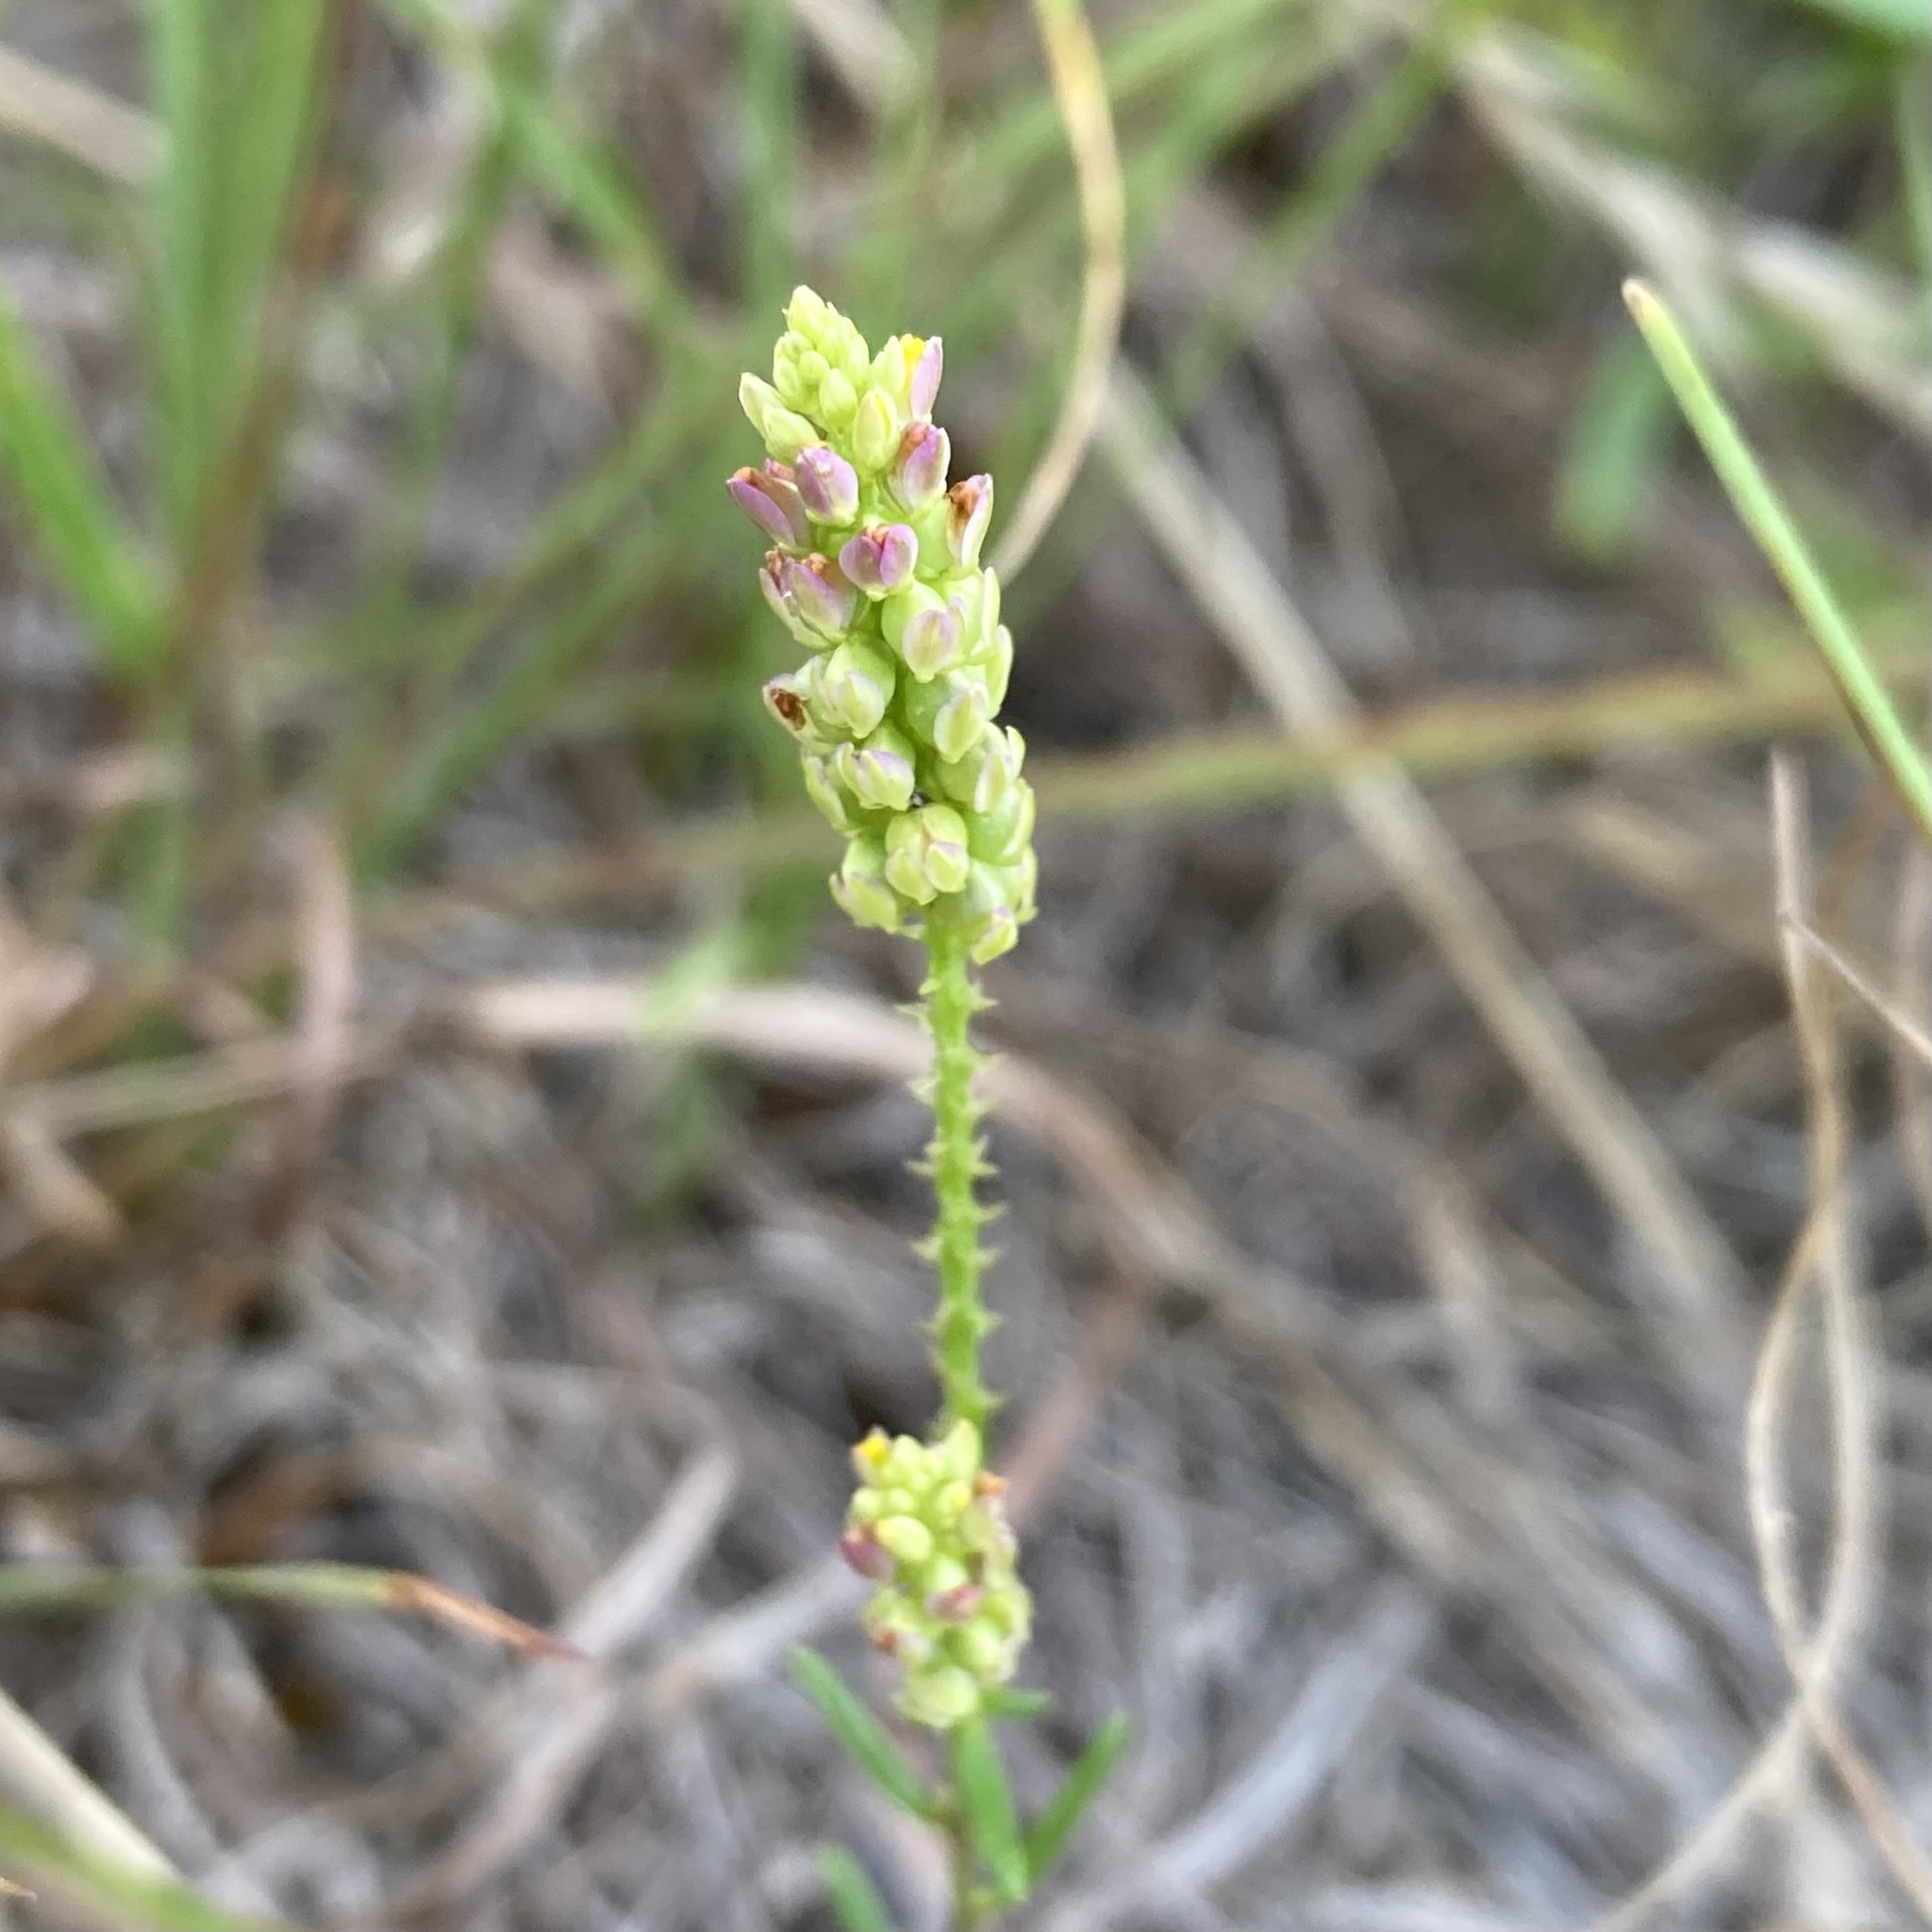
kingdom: Plantae
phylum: Tracheophyta
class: Magnoliopsida
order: Fabales
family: Polygalaceae
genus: Polygala
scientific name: Polygala nuttallii
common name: Nuttall's milkwort
